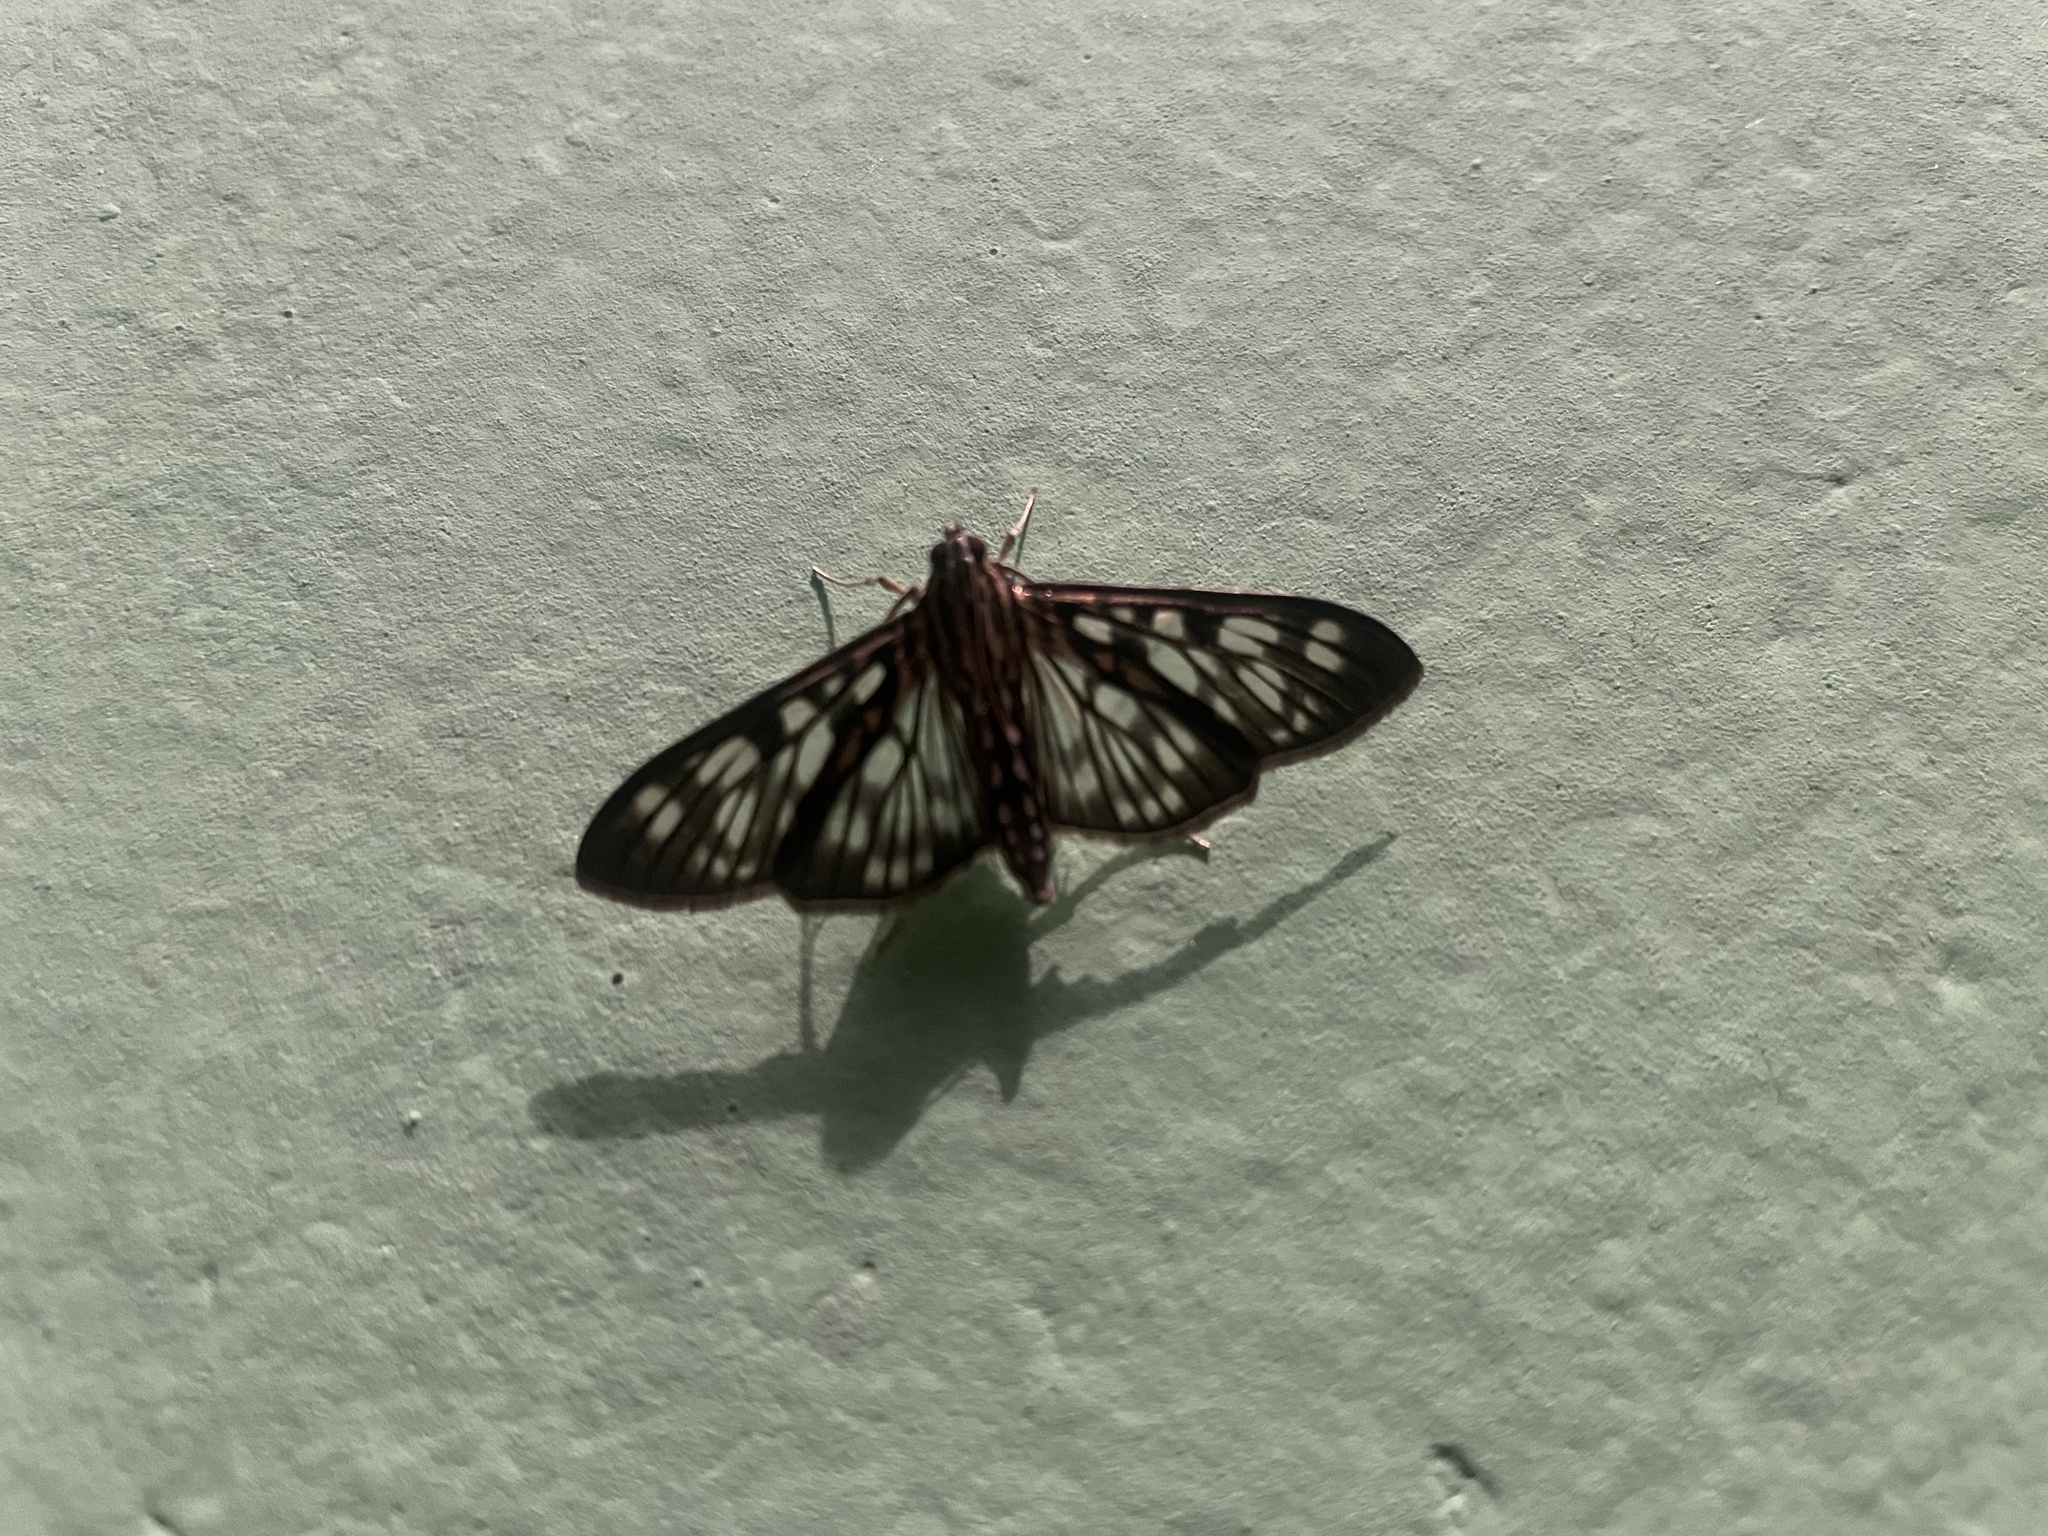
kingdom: Animalia
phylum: Arthropoda
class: Insecta
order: Lepidoptera
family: Crambidae
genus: Pygospila
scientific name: Pygospila tyres
